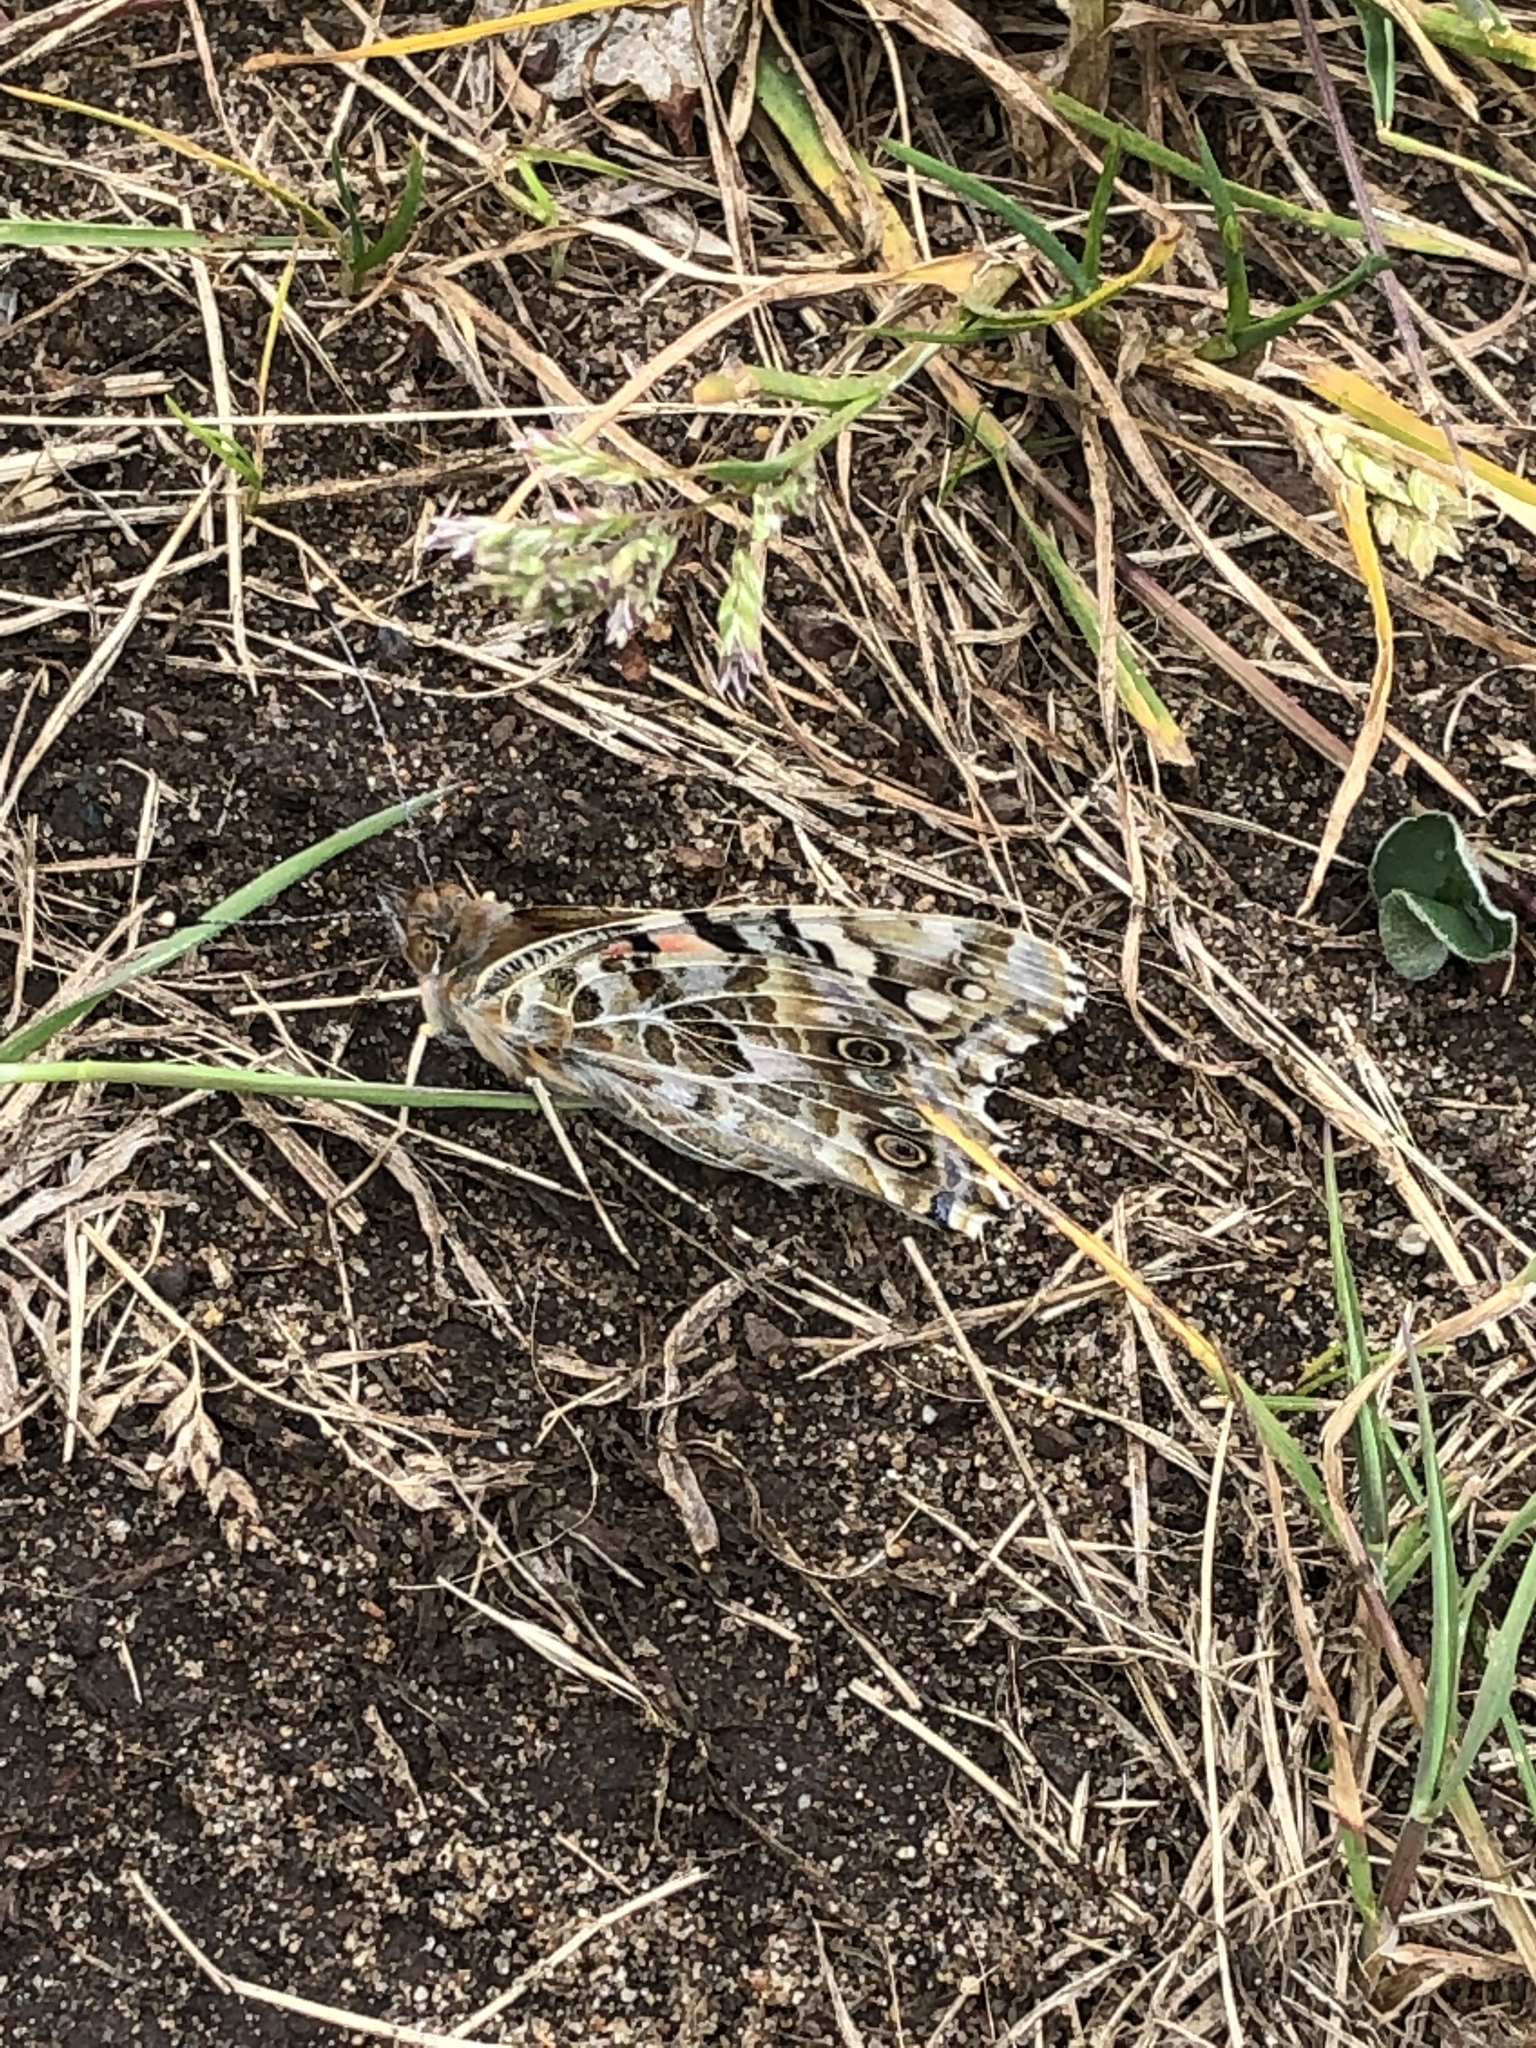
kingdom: Animalia
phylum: Arthropoda
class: Insecta
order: Lepidoptera
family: Nymphalidae
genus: Vanessa
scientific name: Vanessa cardui
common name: Painted lady
